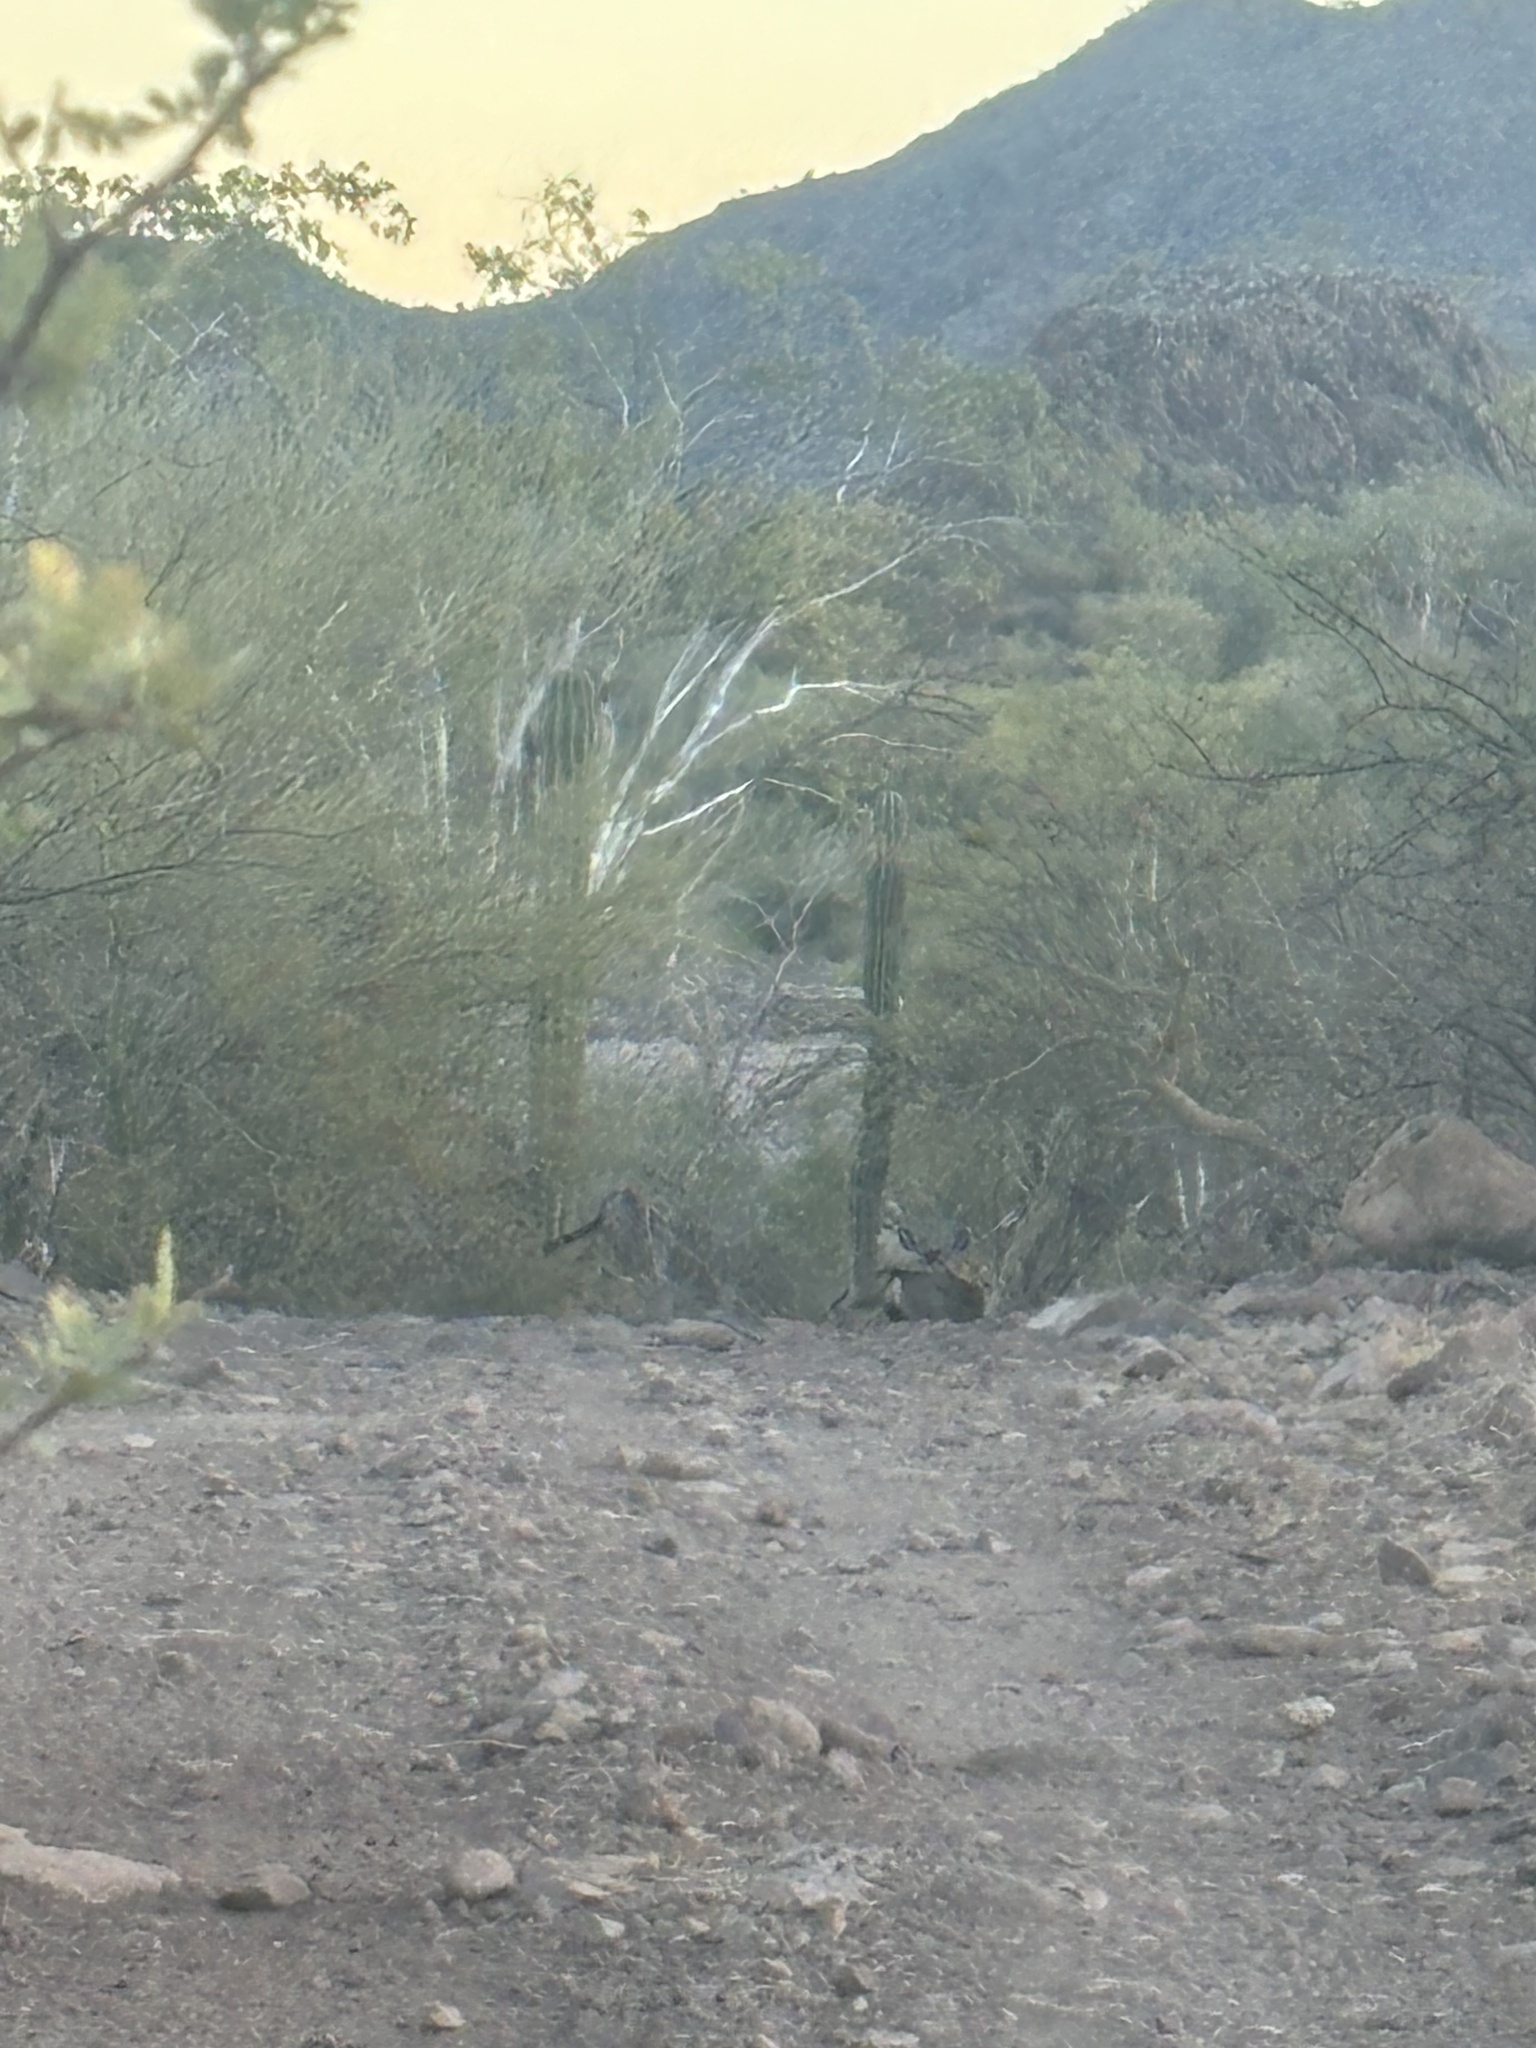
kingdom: Animalia
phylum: Chordata
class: Mammalia
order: Artiodactyla
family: Cervidae
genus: Odocoileus
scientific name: Odocoileus hemionus
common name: Mule deer
